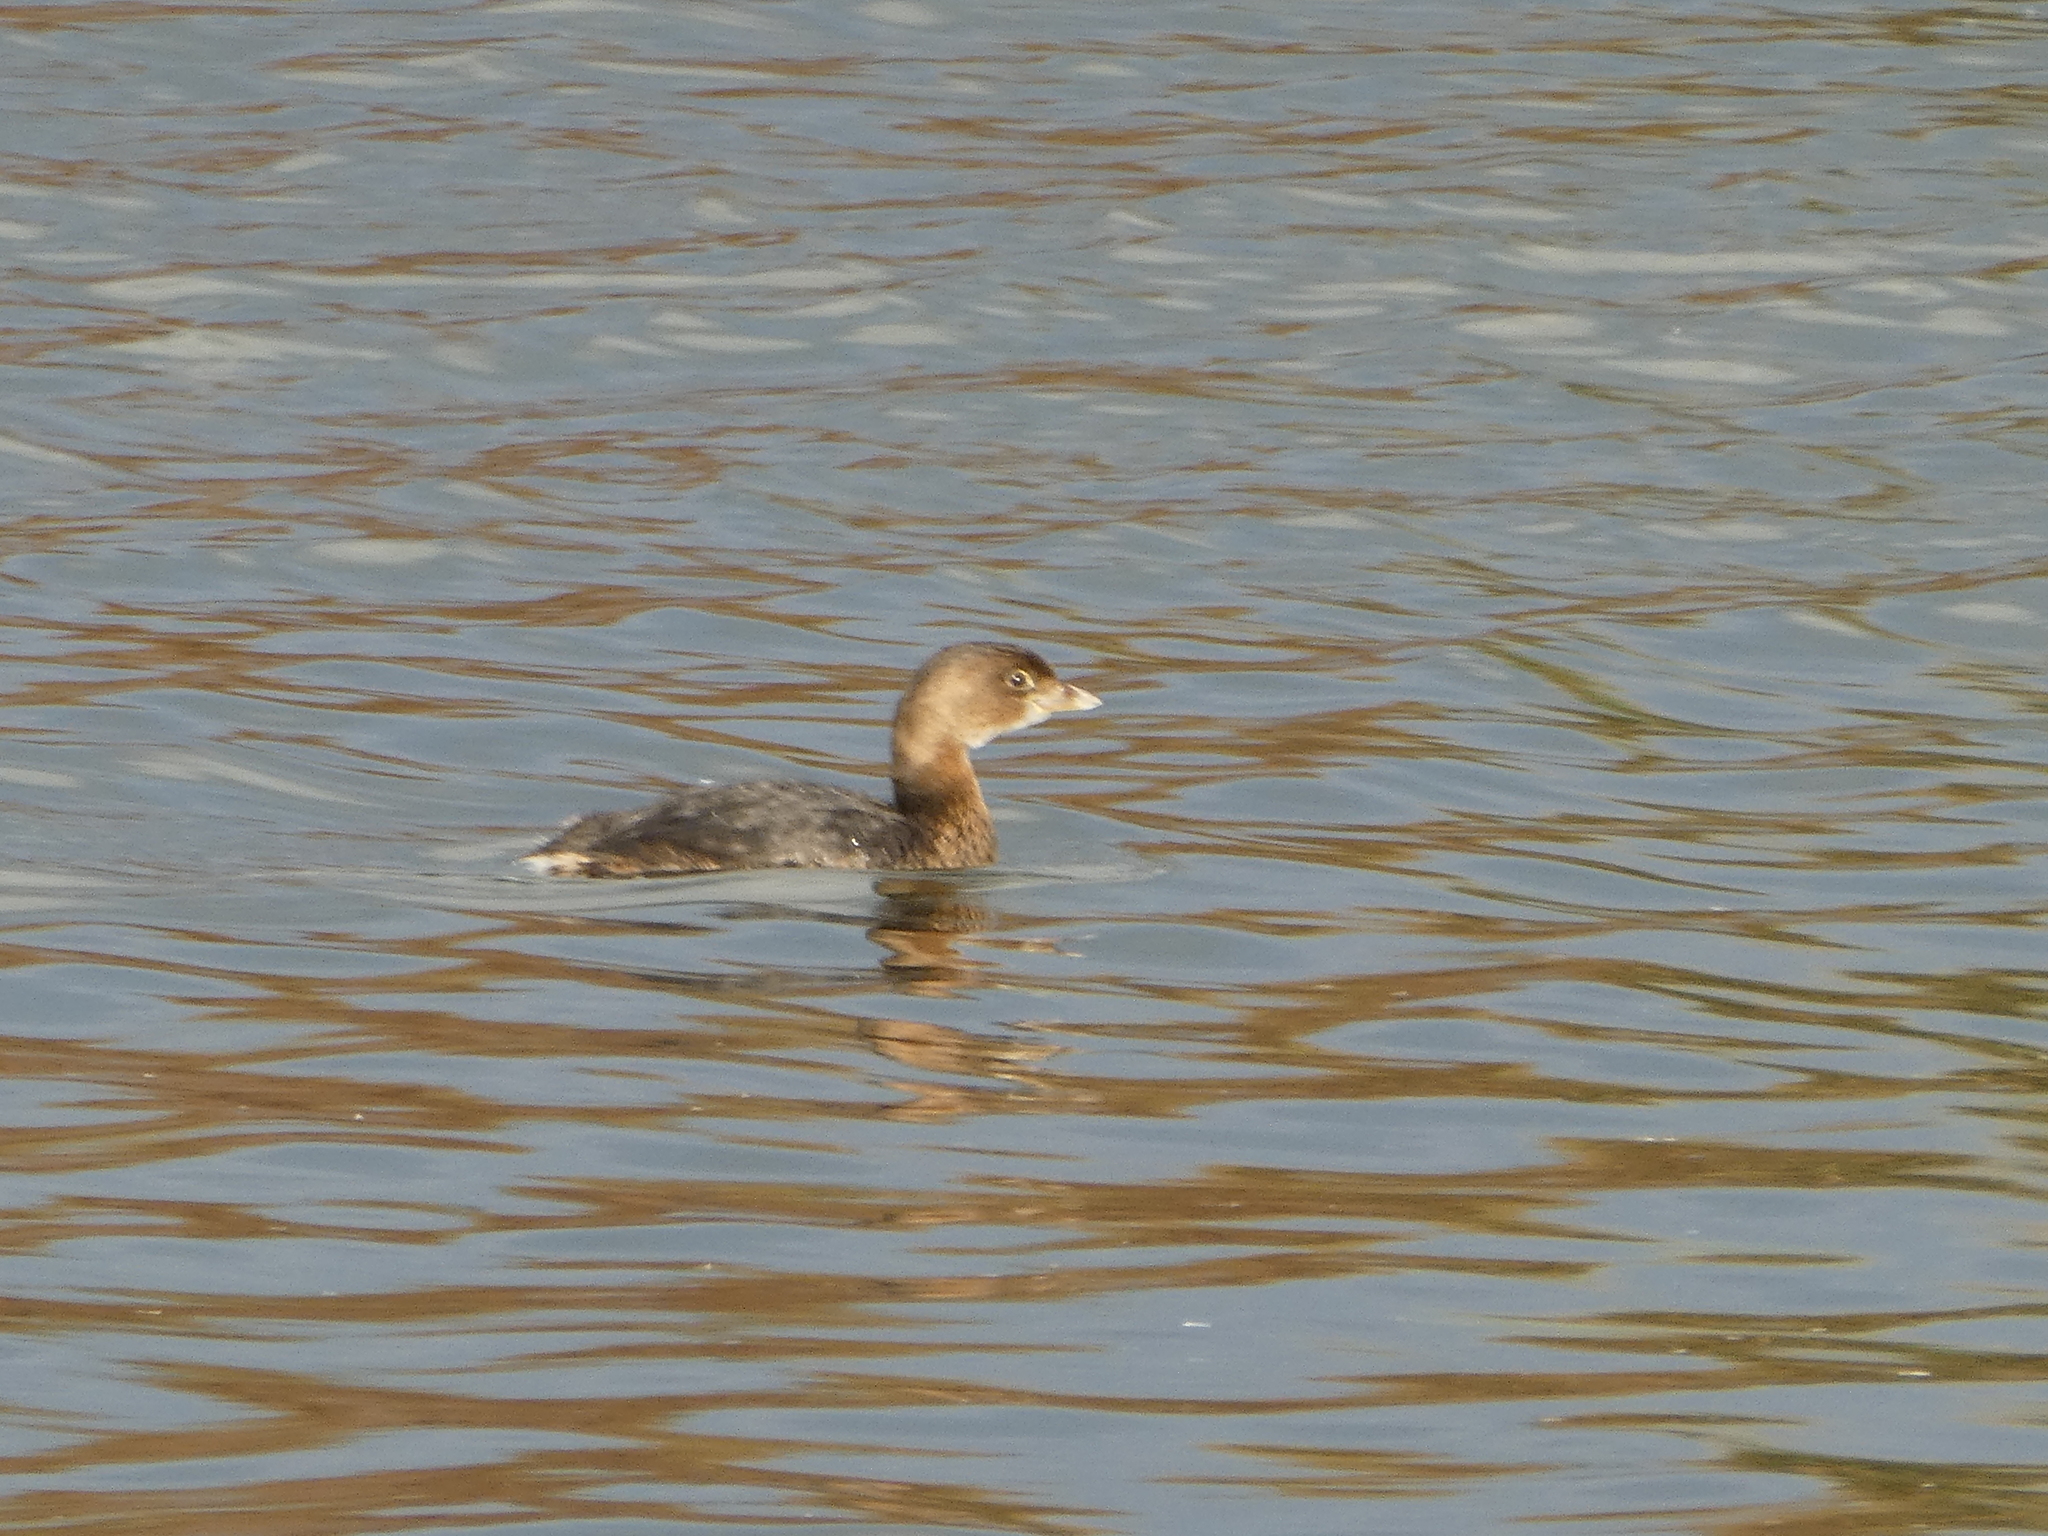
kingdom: Animalia
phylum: Chordata
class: Aves
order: Podicipediformes
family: Podicipedidae
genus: Podilymbus
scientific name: Podilymbus podiceps
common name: Pied-billed grebe
